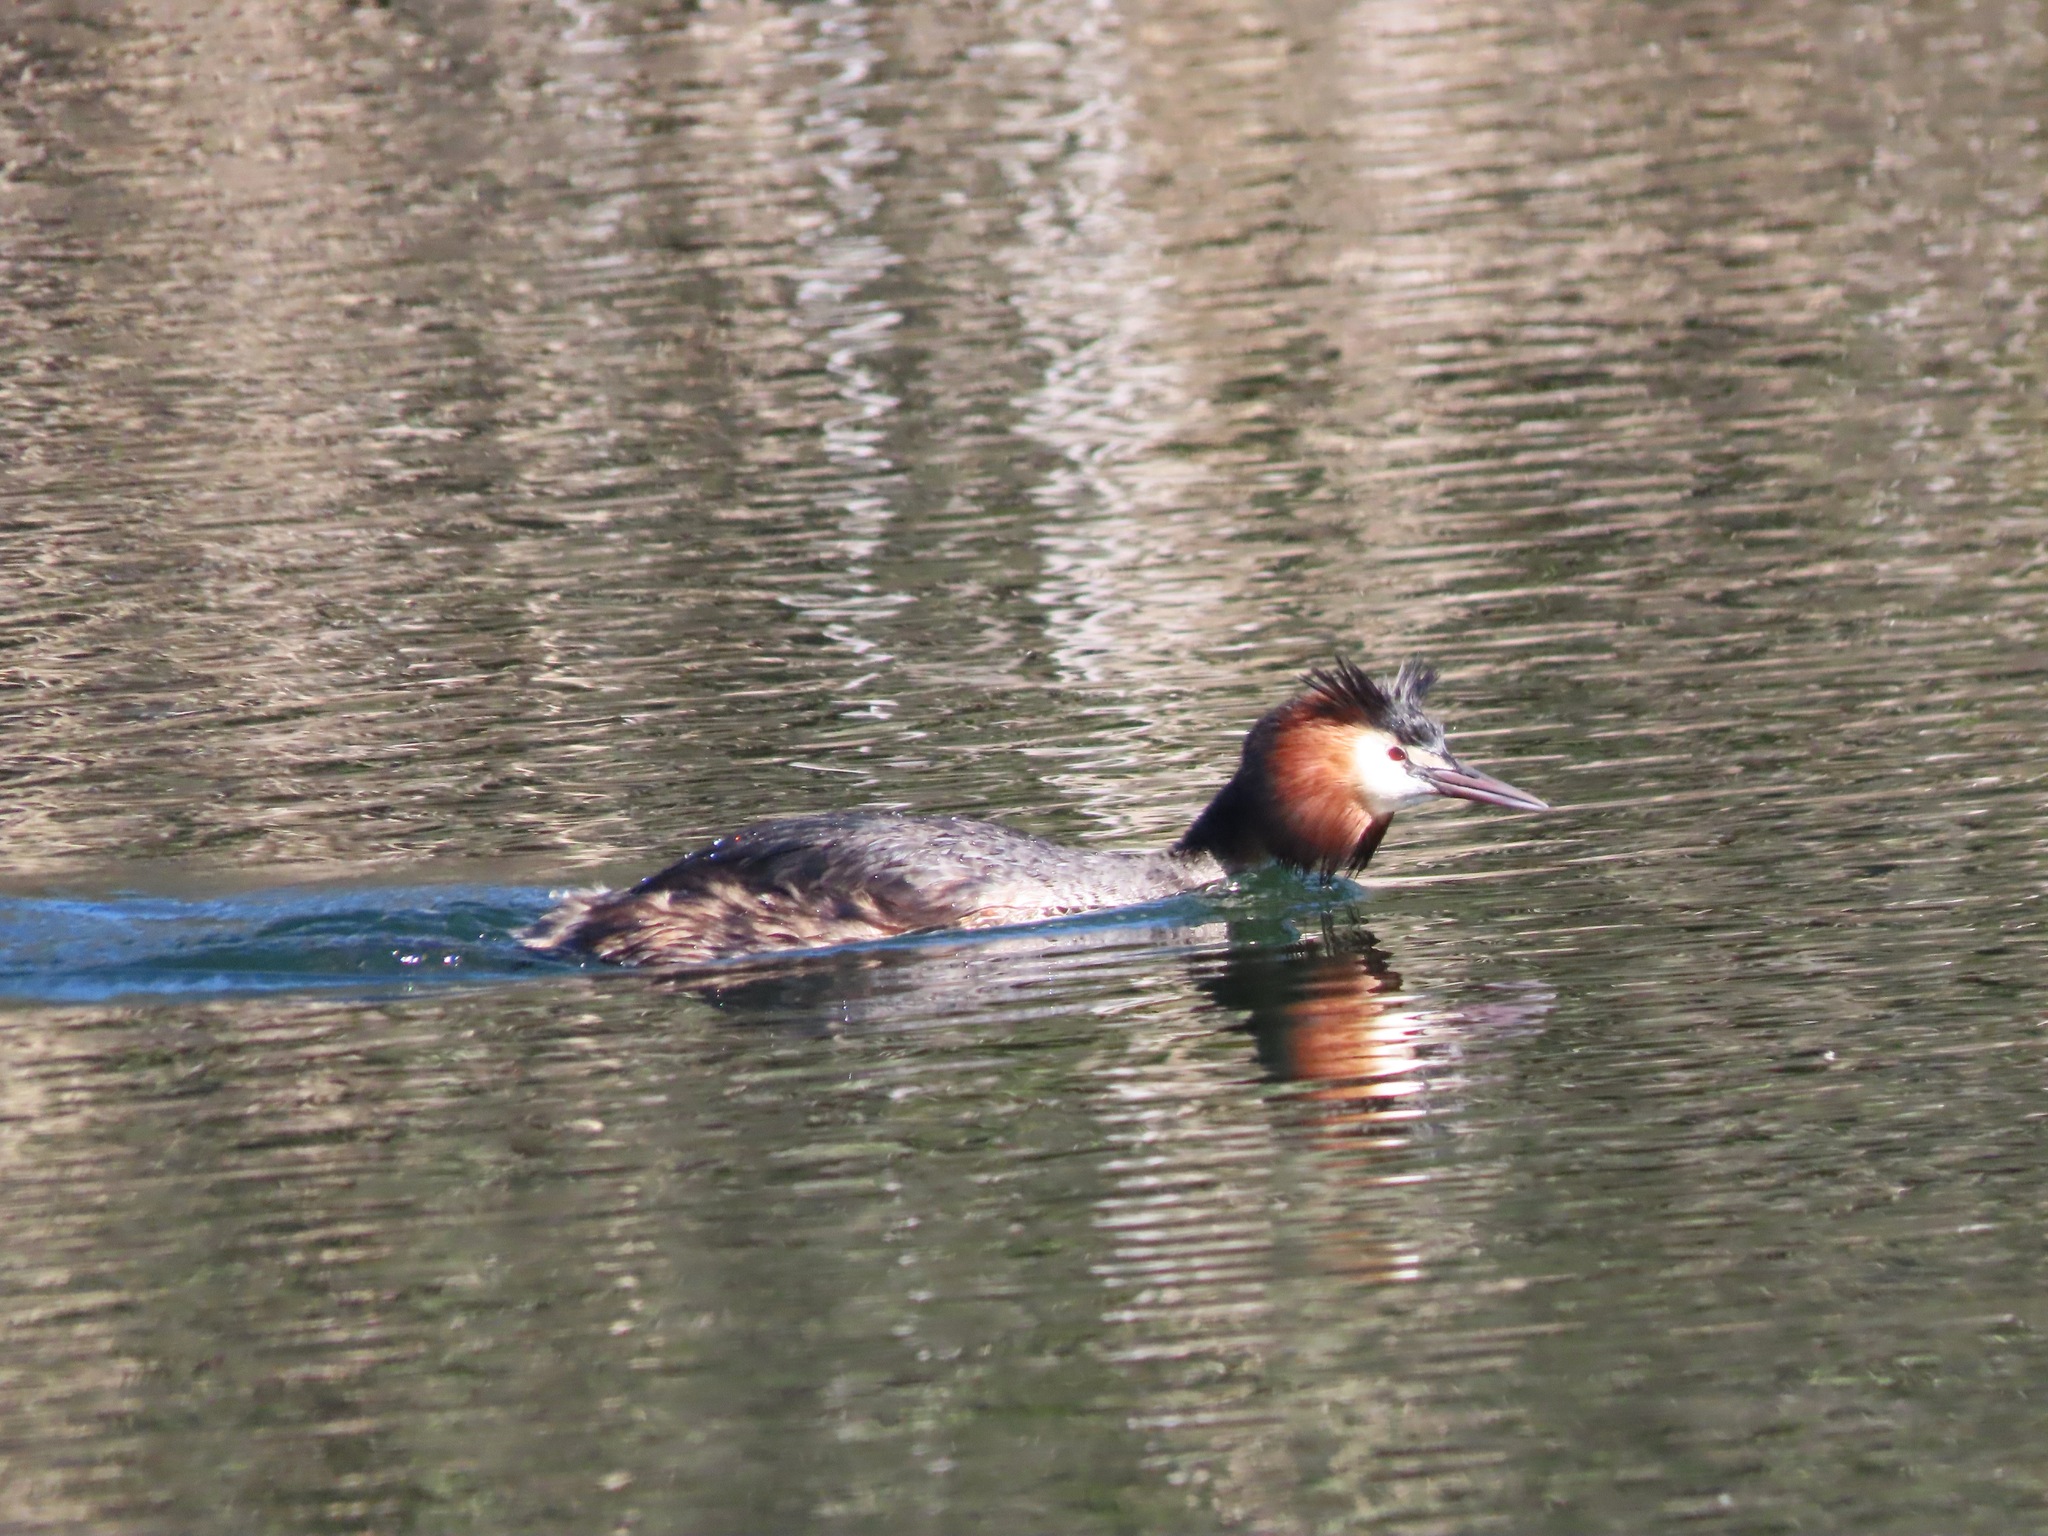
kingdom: Animalia
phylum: Chordata
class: Aves
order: Podicipediformes
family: Podicipedidae
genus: Podiceps
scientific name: Podiceps cristatus
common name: Great crested grebe
